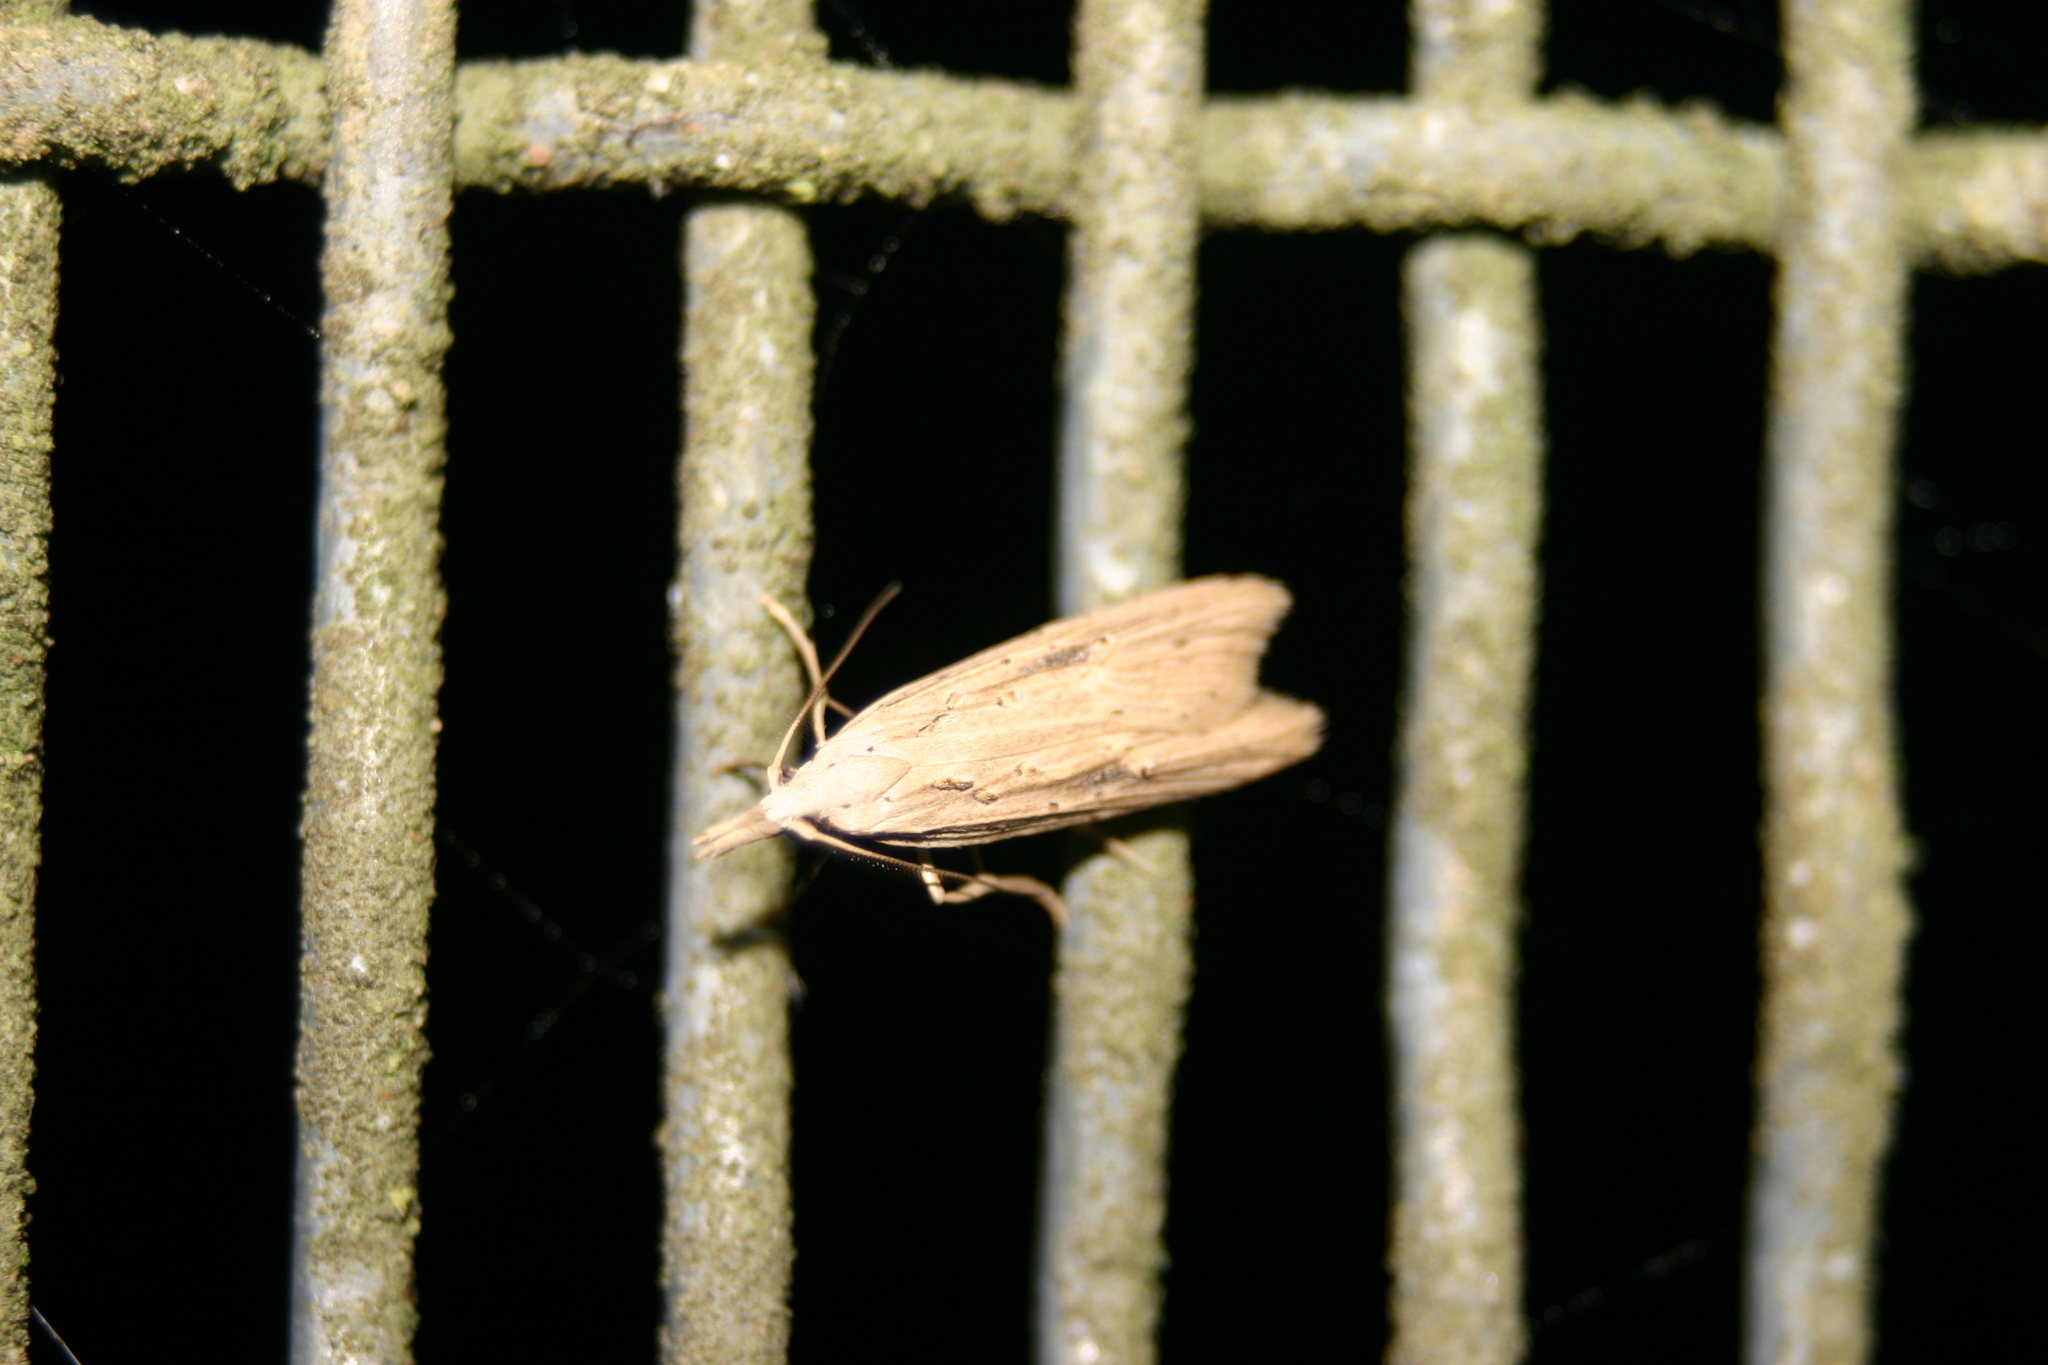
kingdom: Animalia
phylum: Arthropoda
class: Insecta
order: Lepidoptera
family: Carposinidae
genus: Carposina
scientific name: Carposina Heterocrossa exochana
